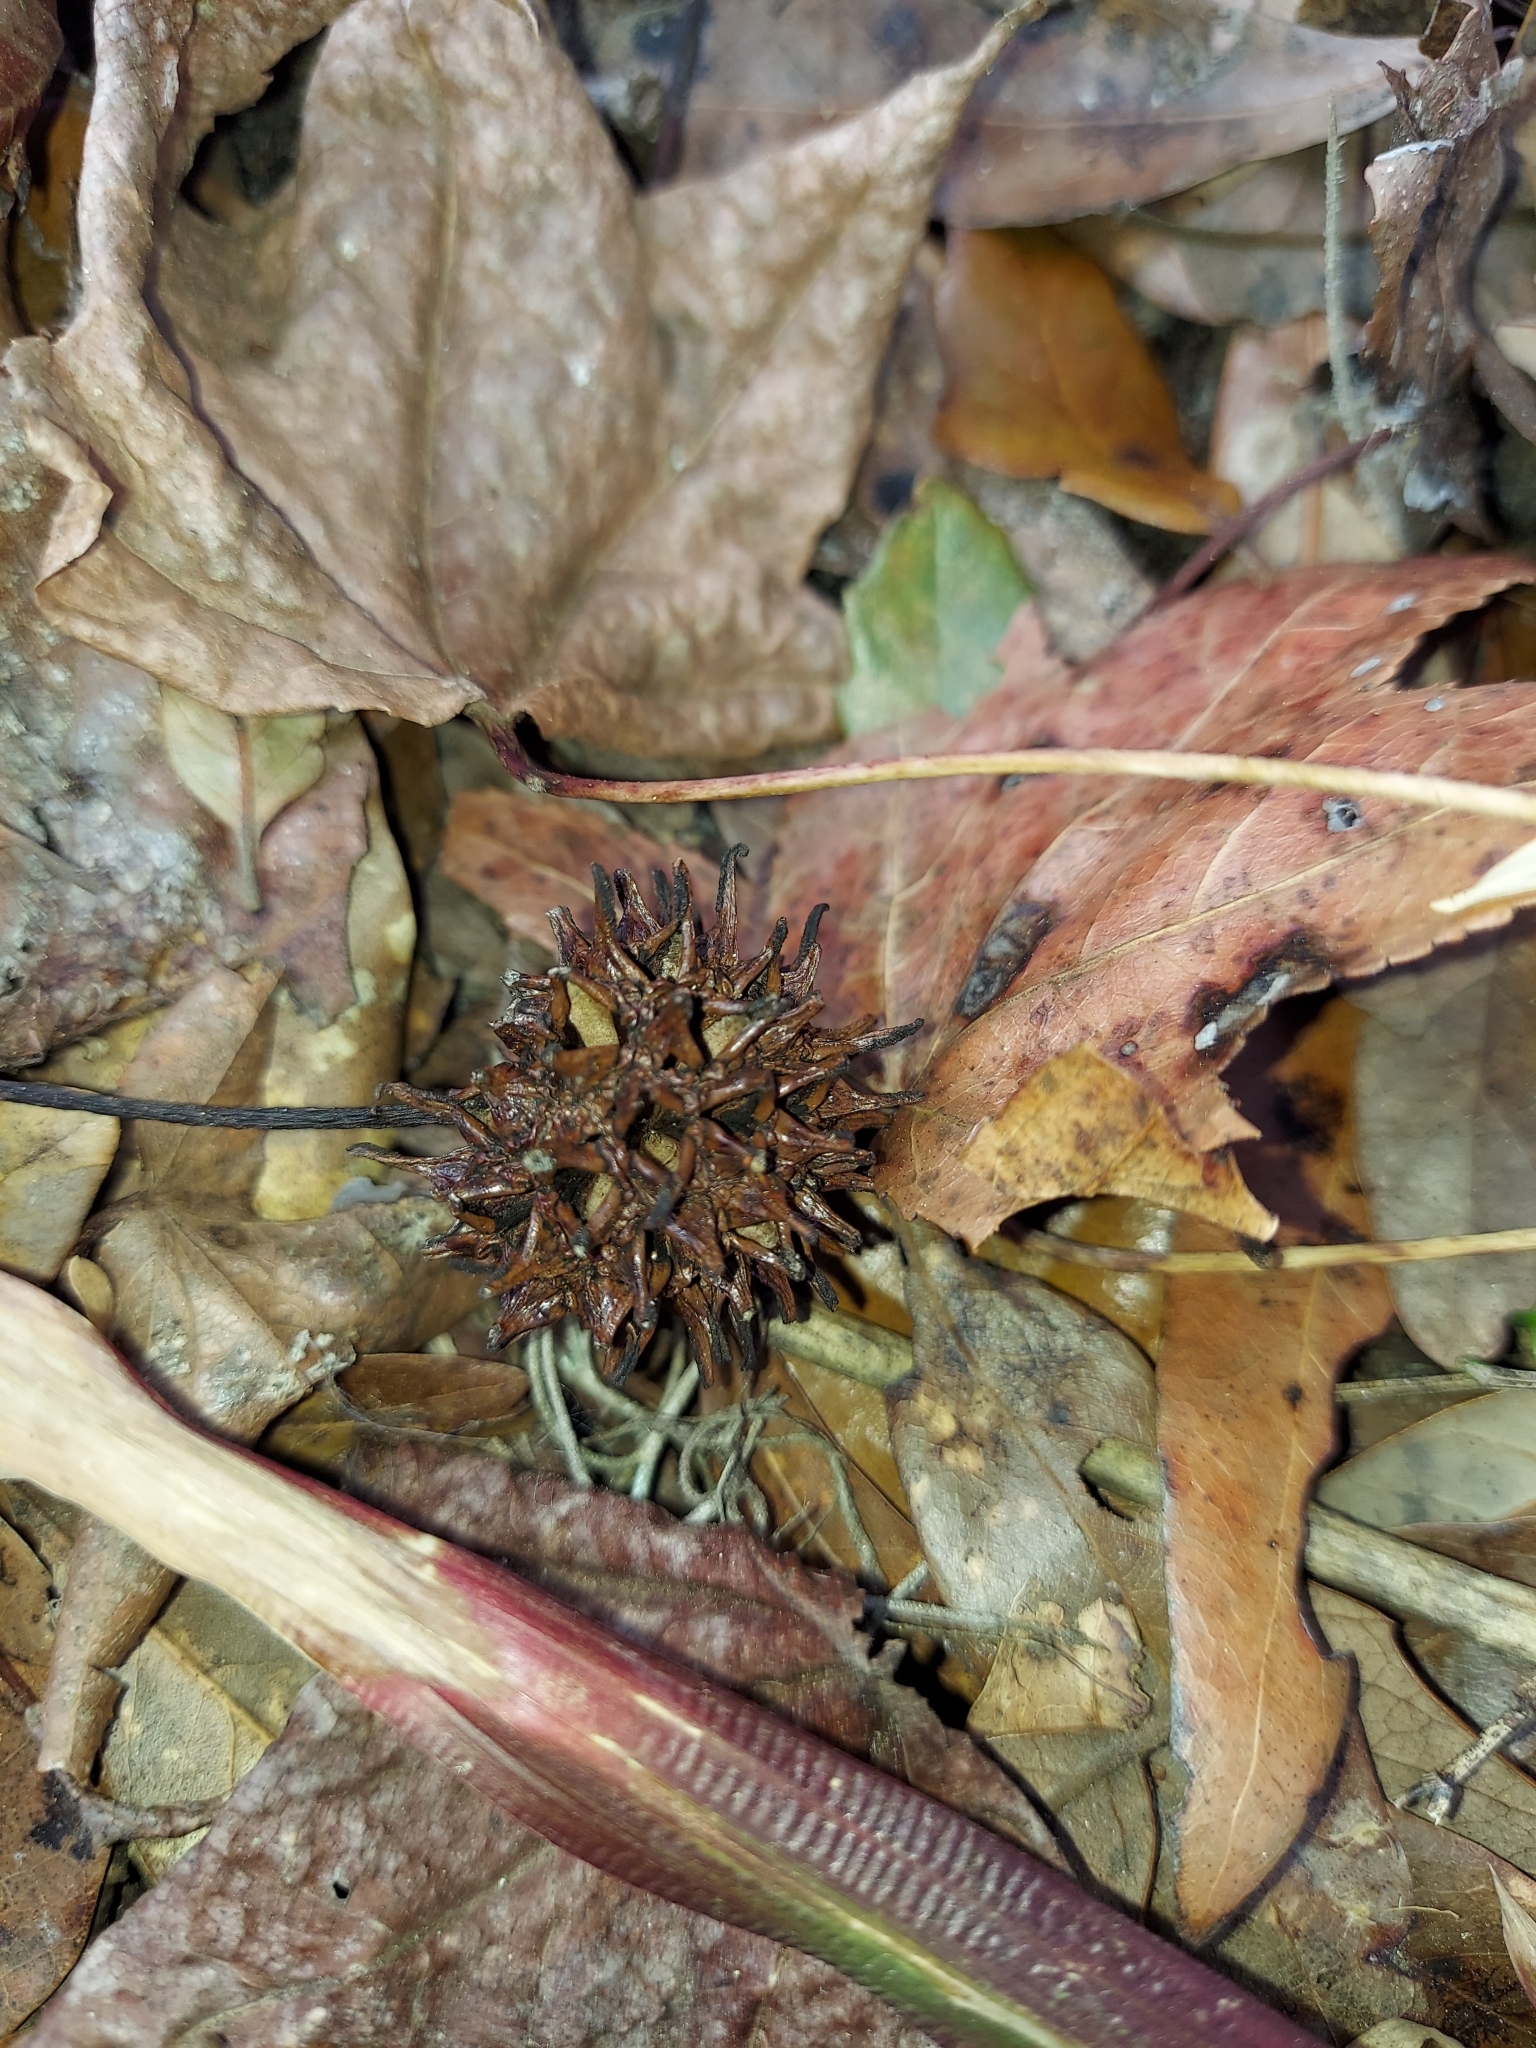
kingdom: Plantae
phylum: Tracheophyta
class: Magnoliopsida
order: Saxifragales
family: Altingiaceae
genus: Liquidambar
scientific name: Liquidambar styraciflua
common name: Sweet gum
